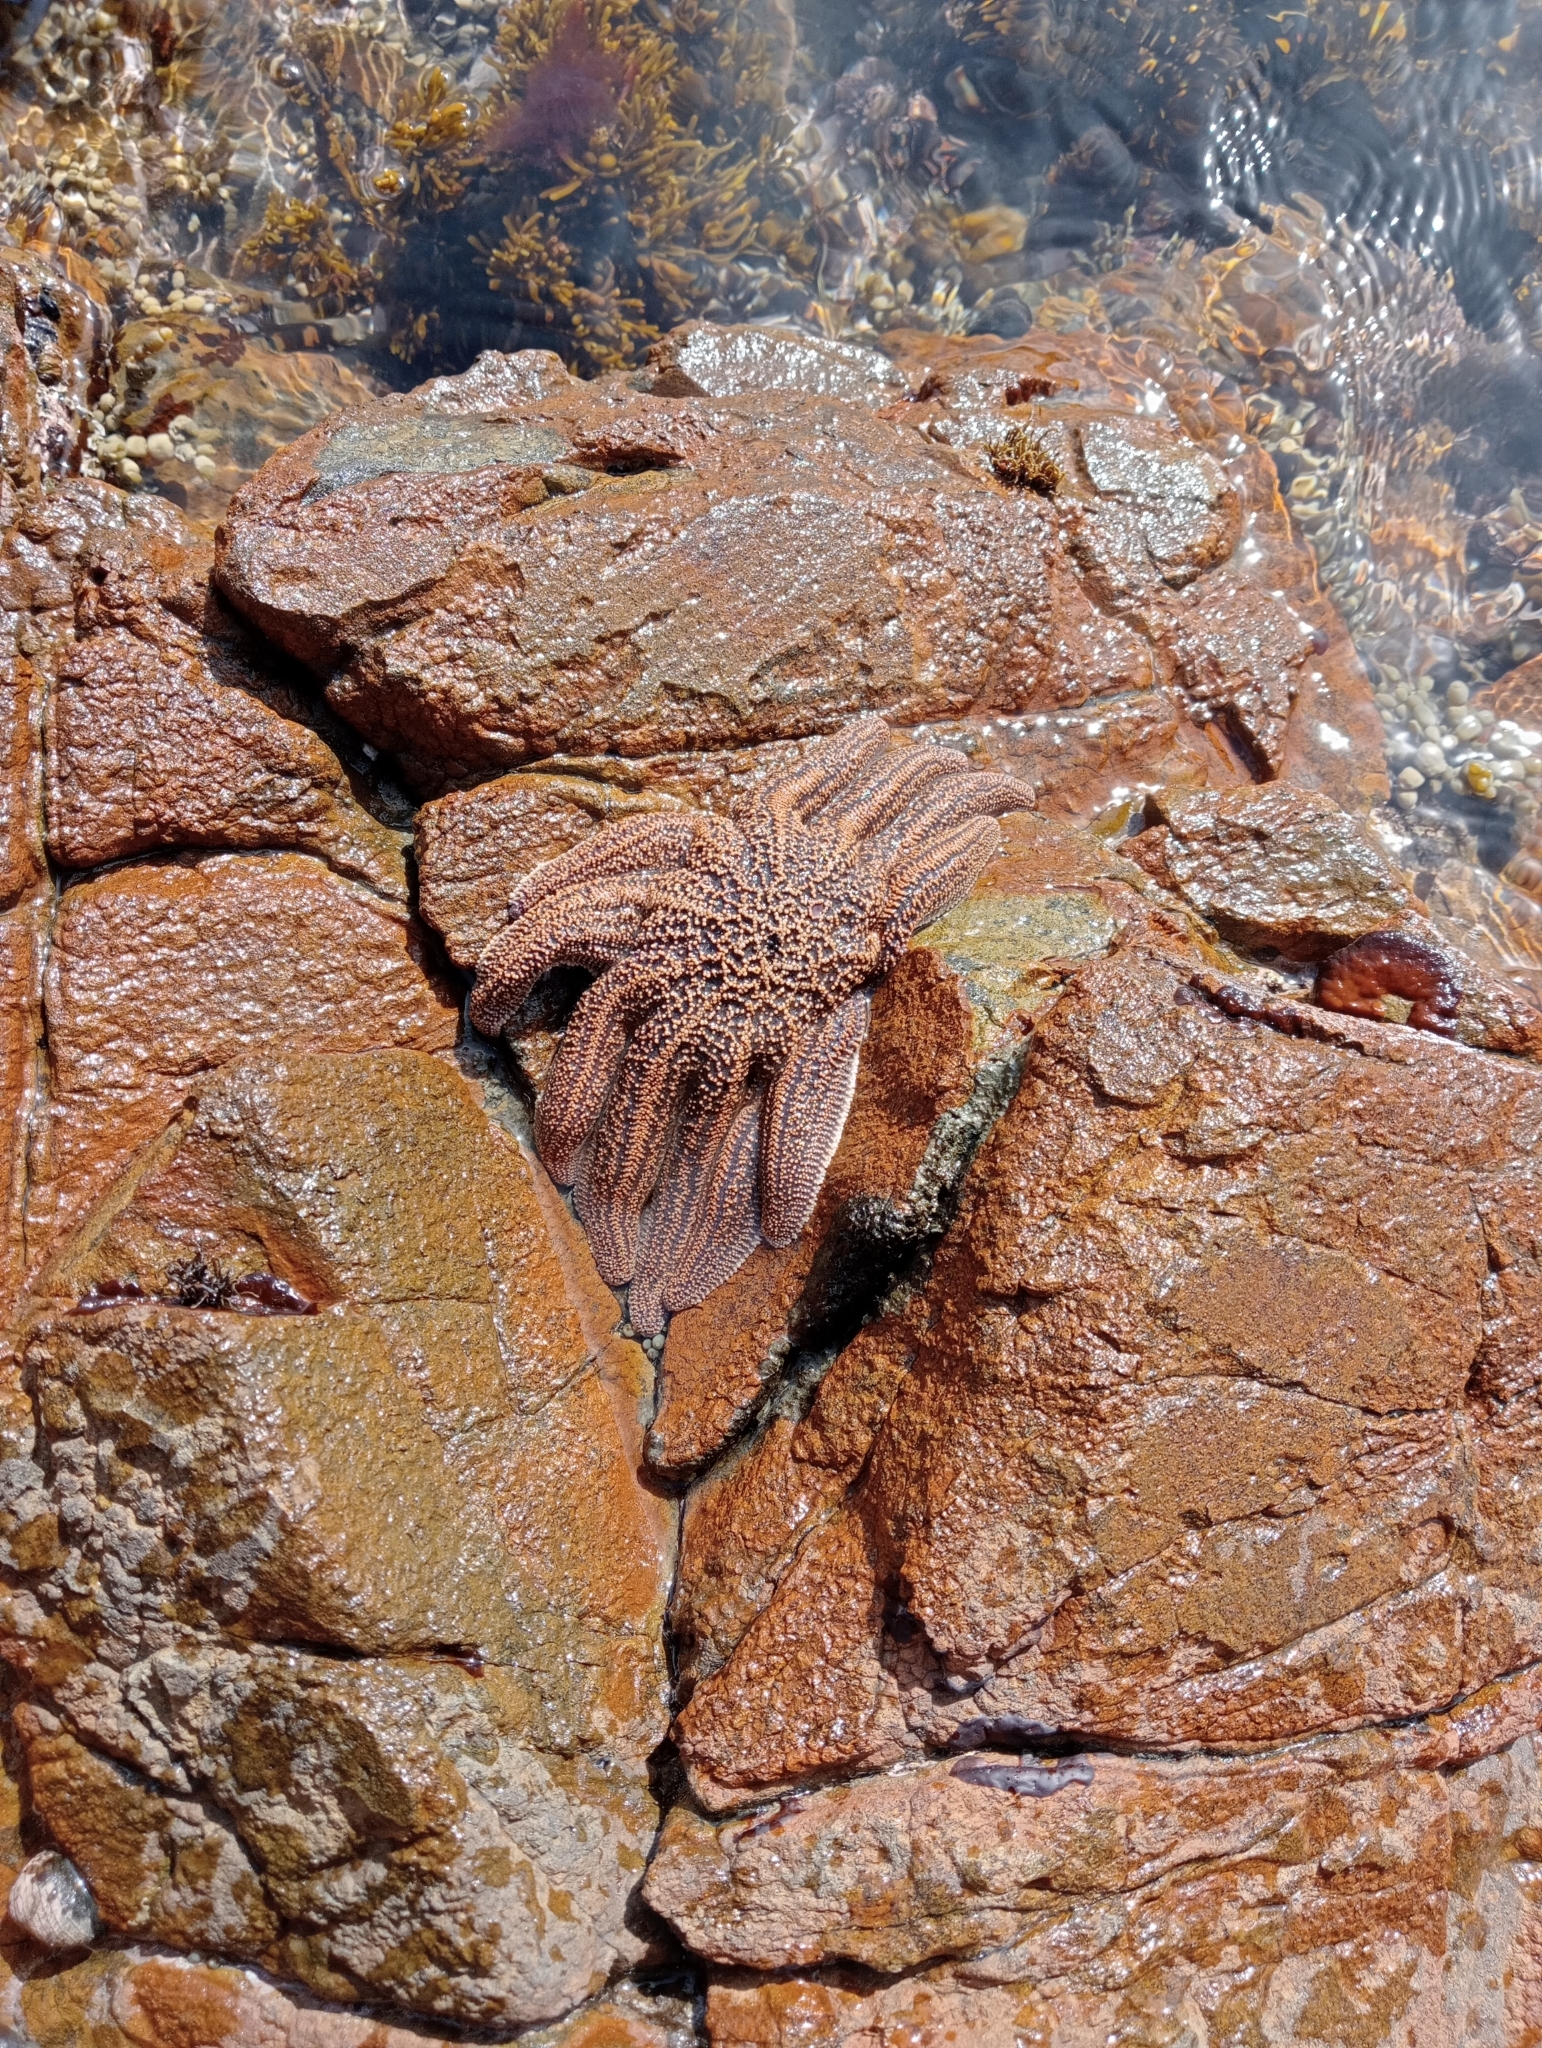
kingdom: Animalia
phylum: Echinodermata
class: Asteroidea
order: Forcipulatida
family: Stichasteridae
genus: Stichaster
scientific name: Stichaster australis
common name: Reef starfish
